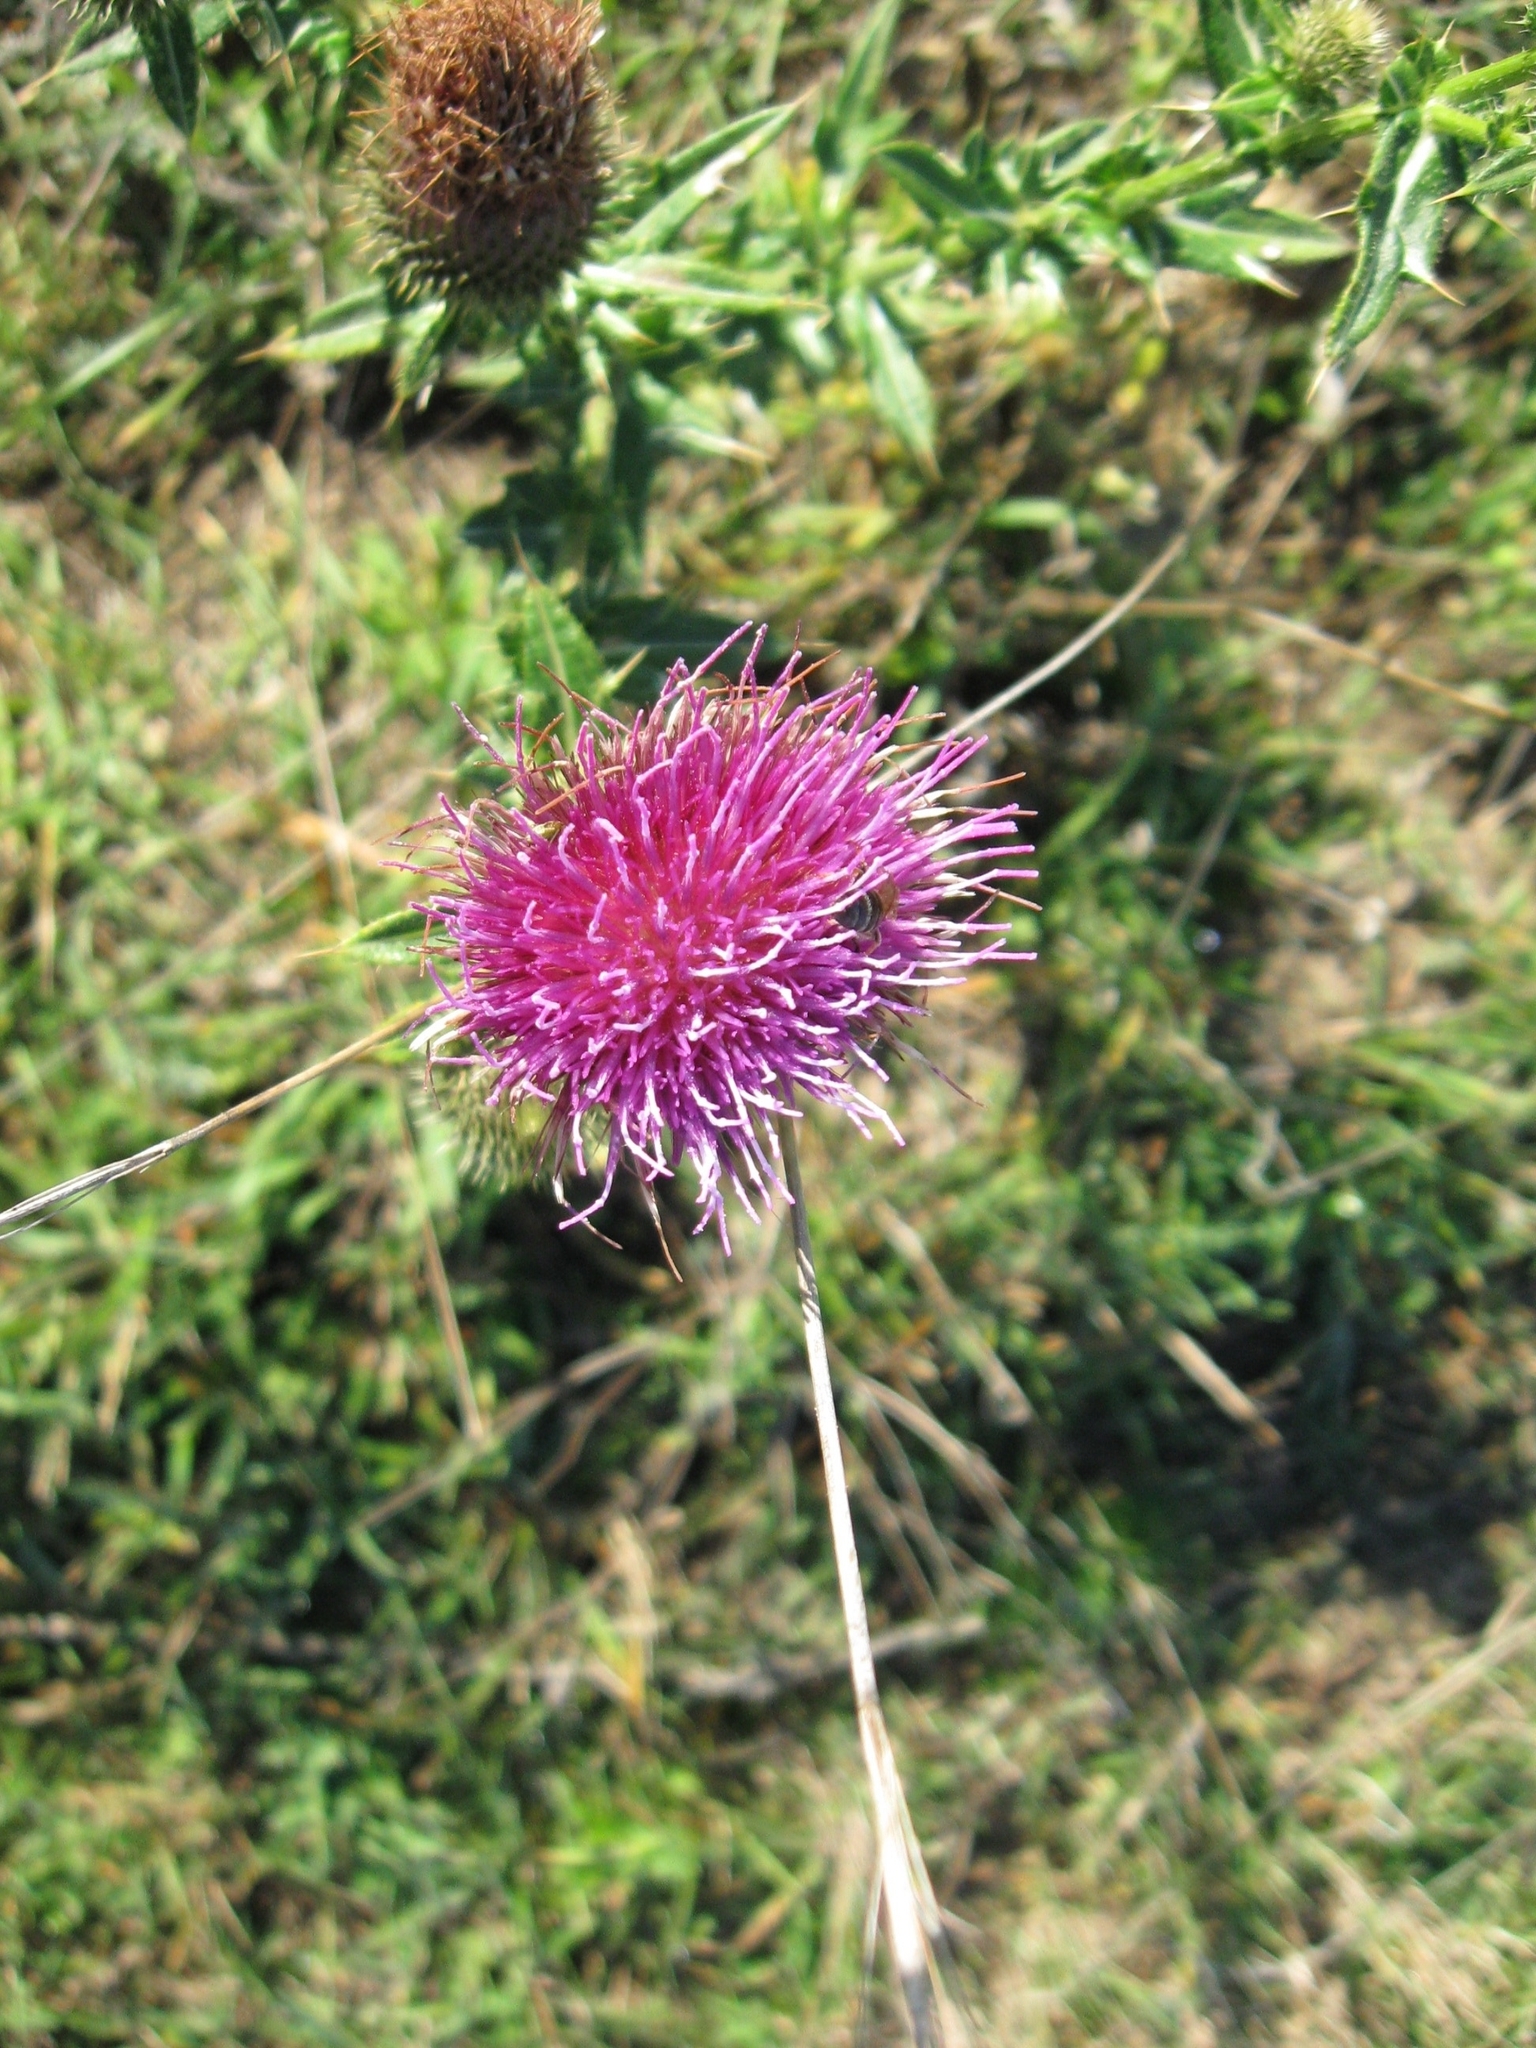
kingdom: Plantae
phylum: Tracheophyta
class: Magnoliopsida
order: Asterales
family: Asteraceae
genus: Cirsium
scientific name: Cirsium serrulatum
